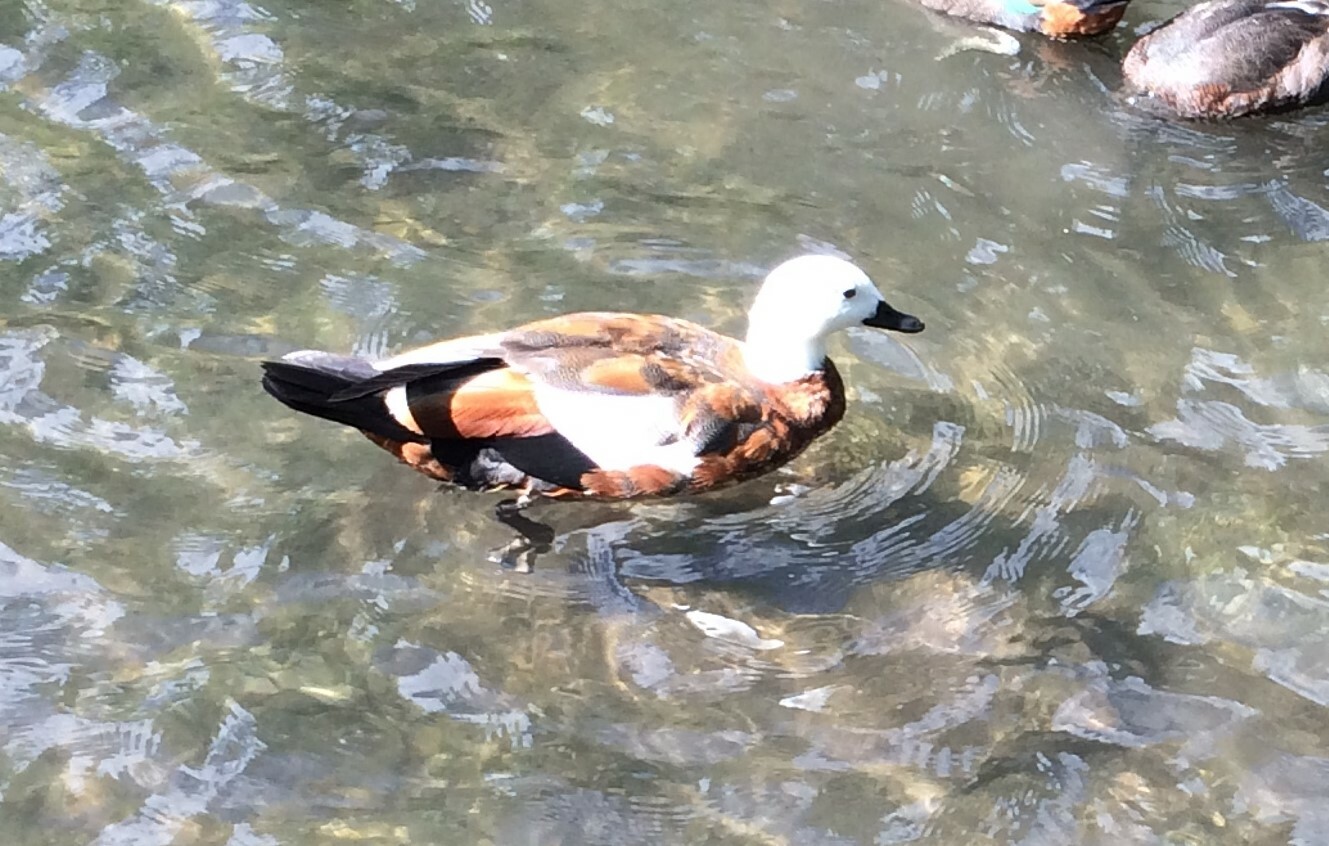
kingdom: Animalia
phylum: Chordata
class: Aves
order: Anseriformes
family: Anatidae
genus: Tadorna
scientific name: Tadorna variegata
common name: Paradise shelduck
